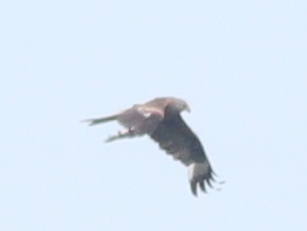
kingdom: Animalia
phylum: Chordata
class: Aves
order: Accipitriformes
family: Accipitridae
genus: Milvus
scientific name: Milvus milvus
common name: Red kite
